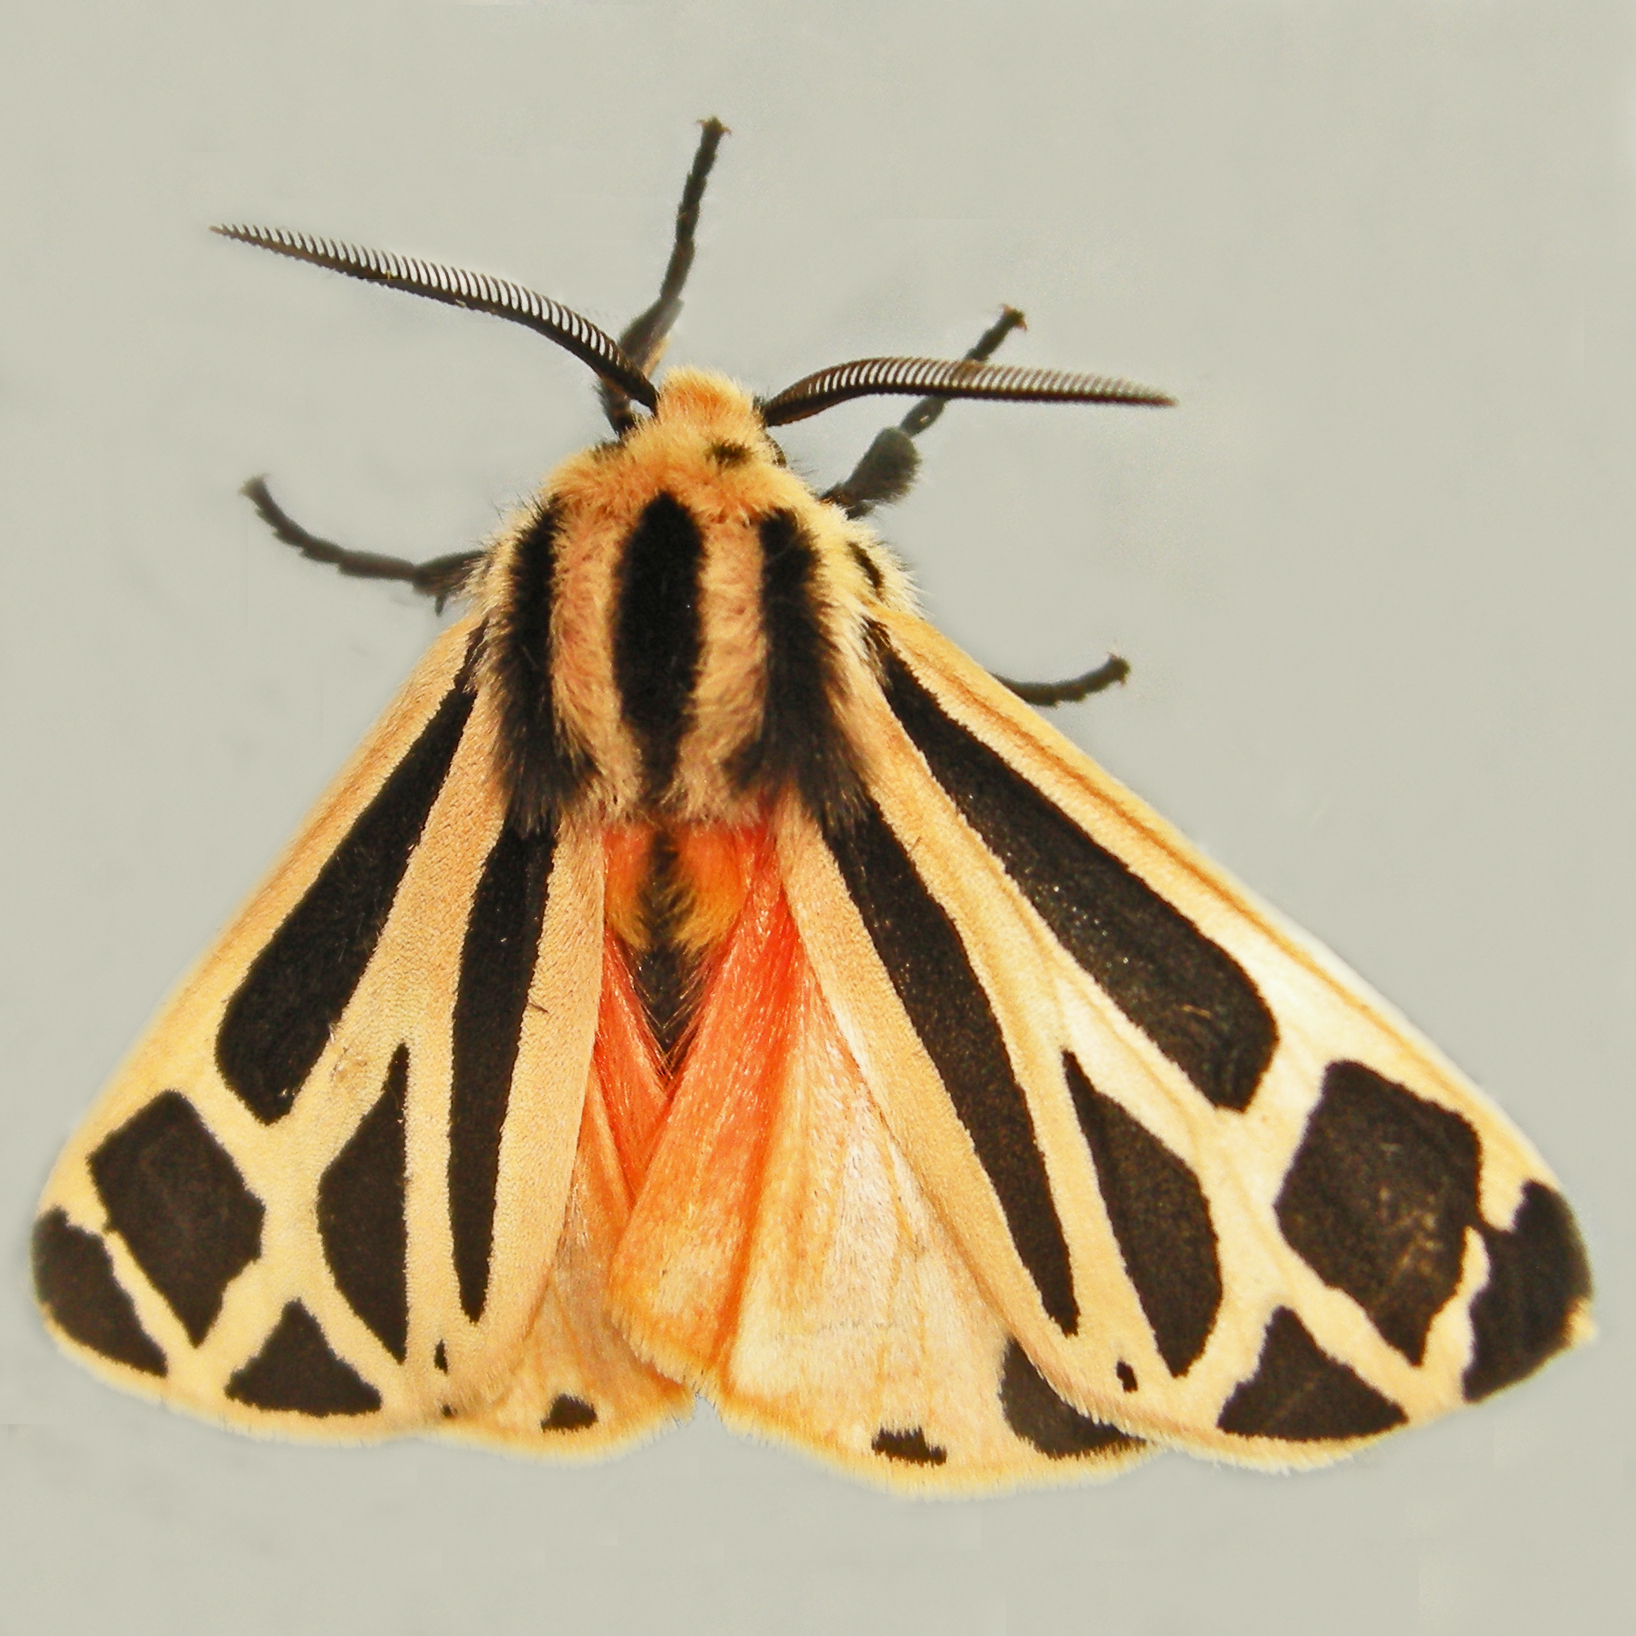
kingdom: Animalia
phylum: Arthropoda
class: Insecta
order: Lepidoptera
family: Erebidae
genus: Apantesis
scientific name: Apantesis phalerata
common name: Harnessed tiger moth
